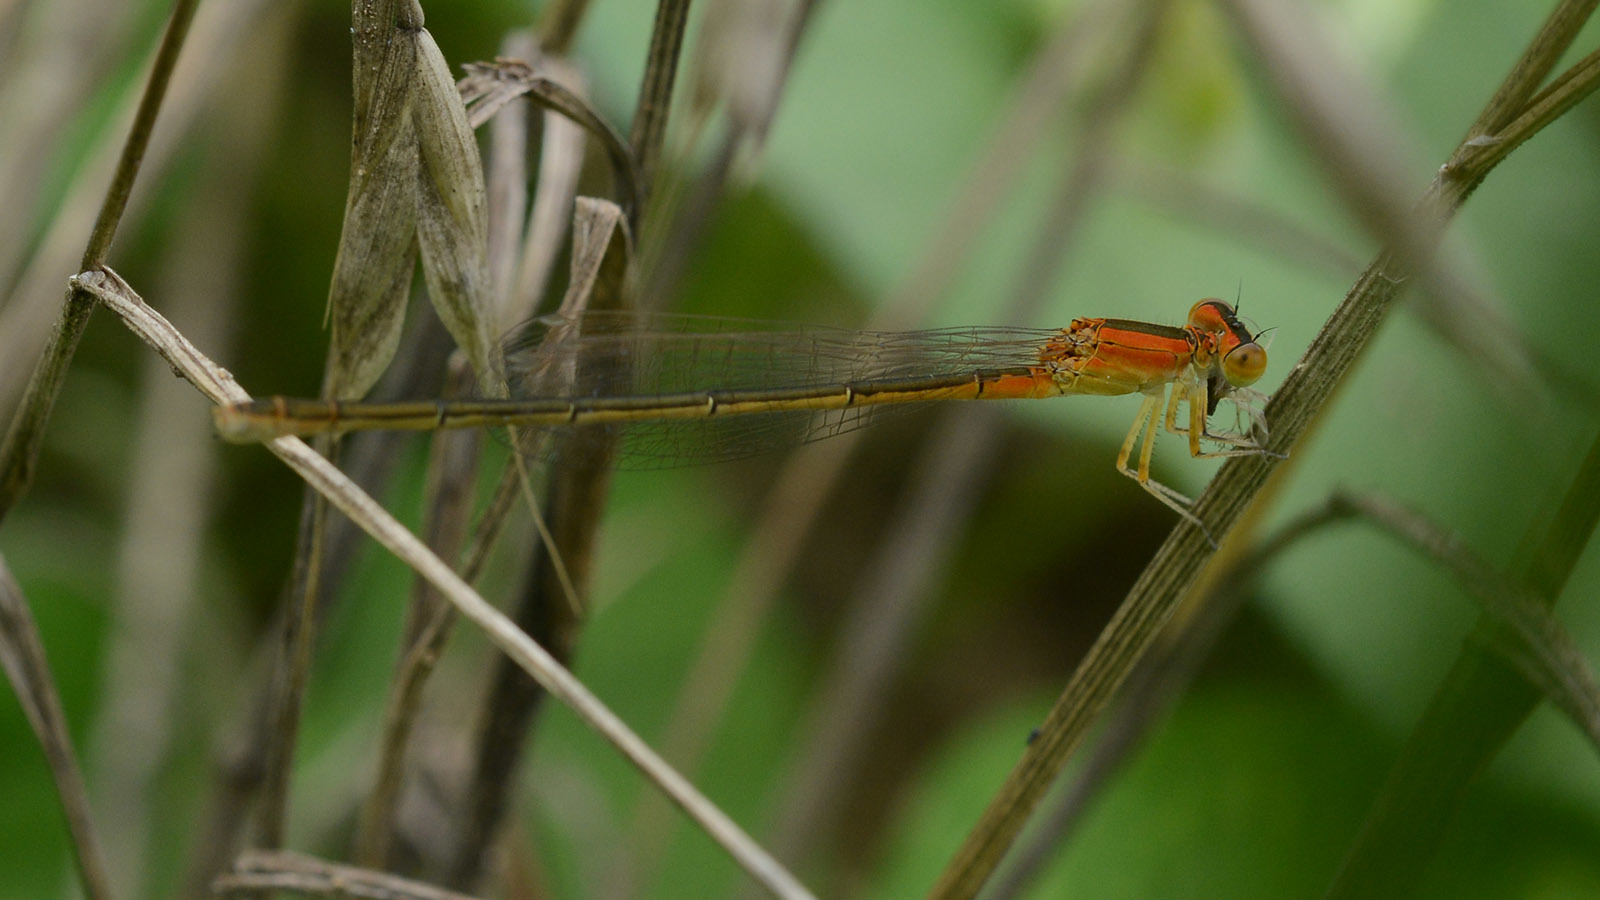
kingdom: Animalia
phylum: Arthropoda
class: Insecta
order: Odonata
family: Coenagrionidae
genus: Ischnura
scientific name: Ischnura asiatica
